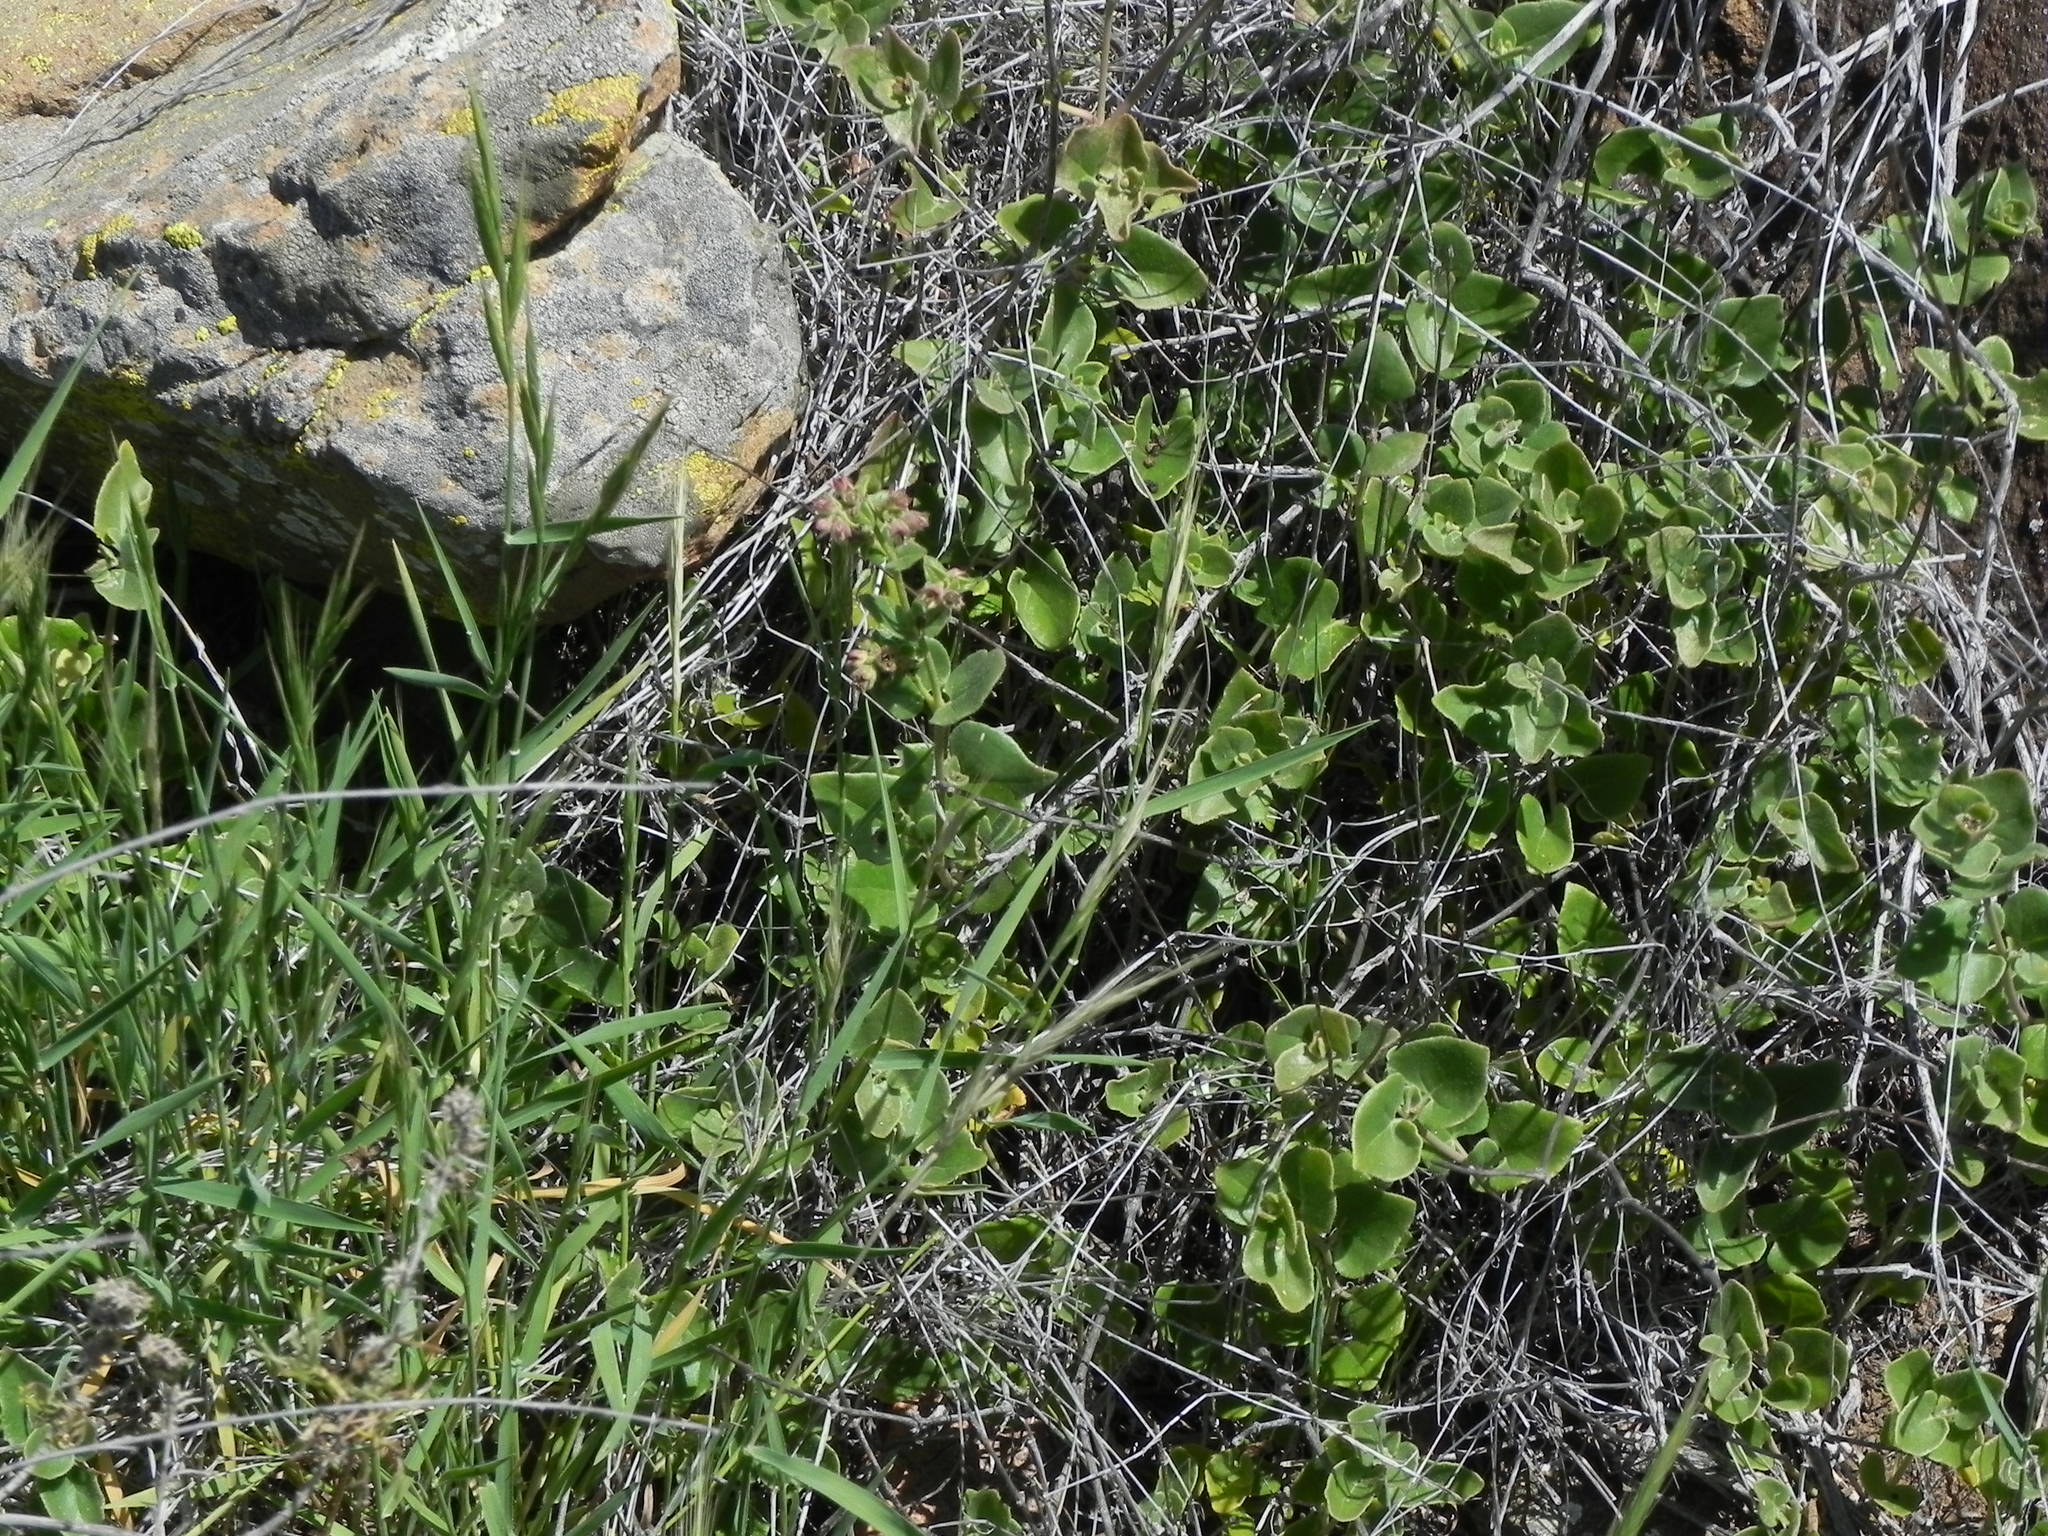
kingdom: Plantae
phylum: Tracheophyta
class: Magnoliopsida
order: Caryophyllales
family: Nyctaginaceae
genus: Mirabilis
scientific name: Mirabilis laevis
